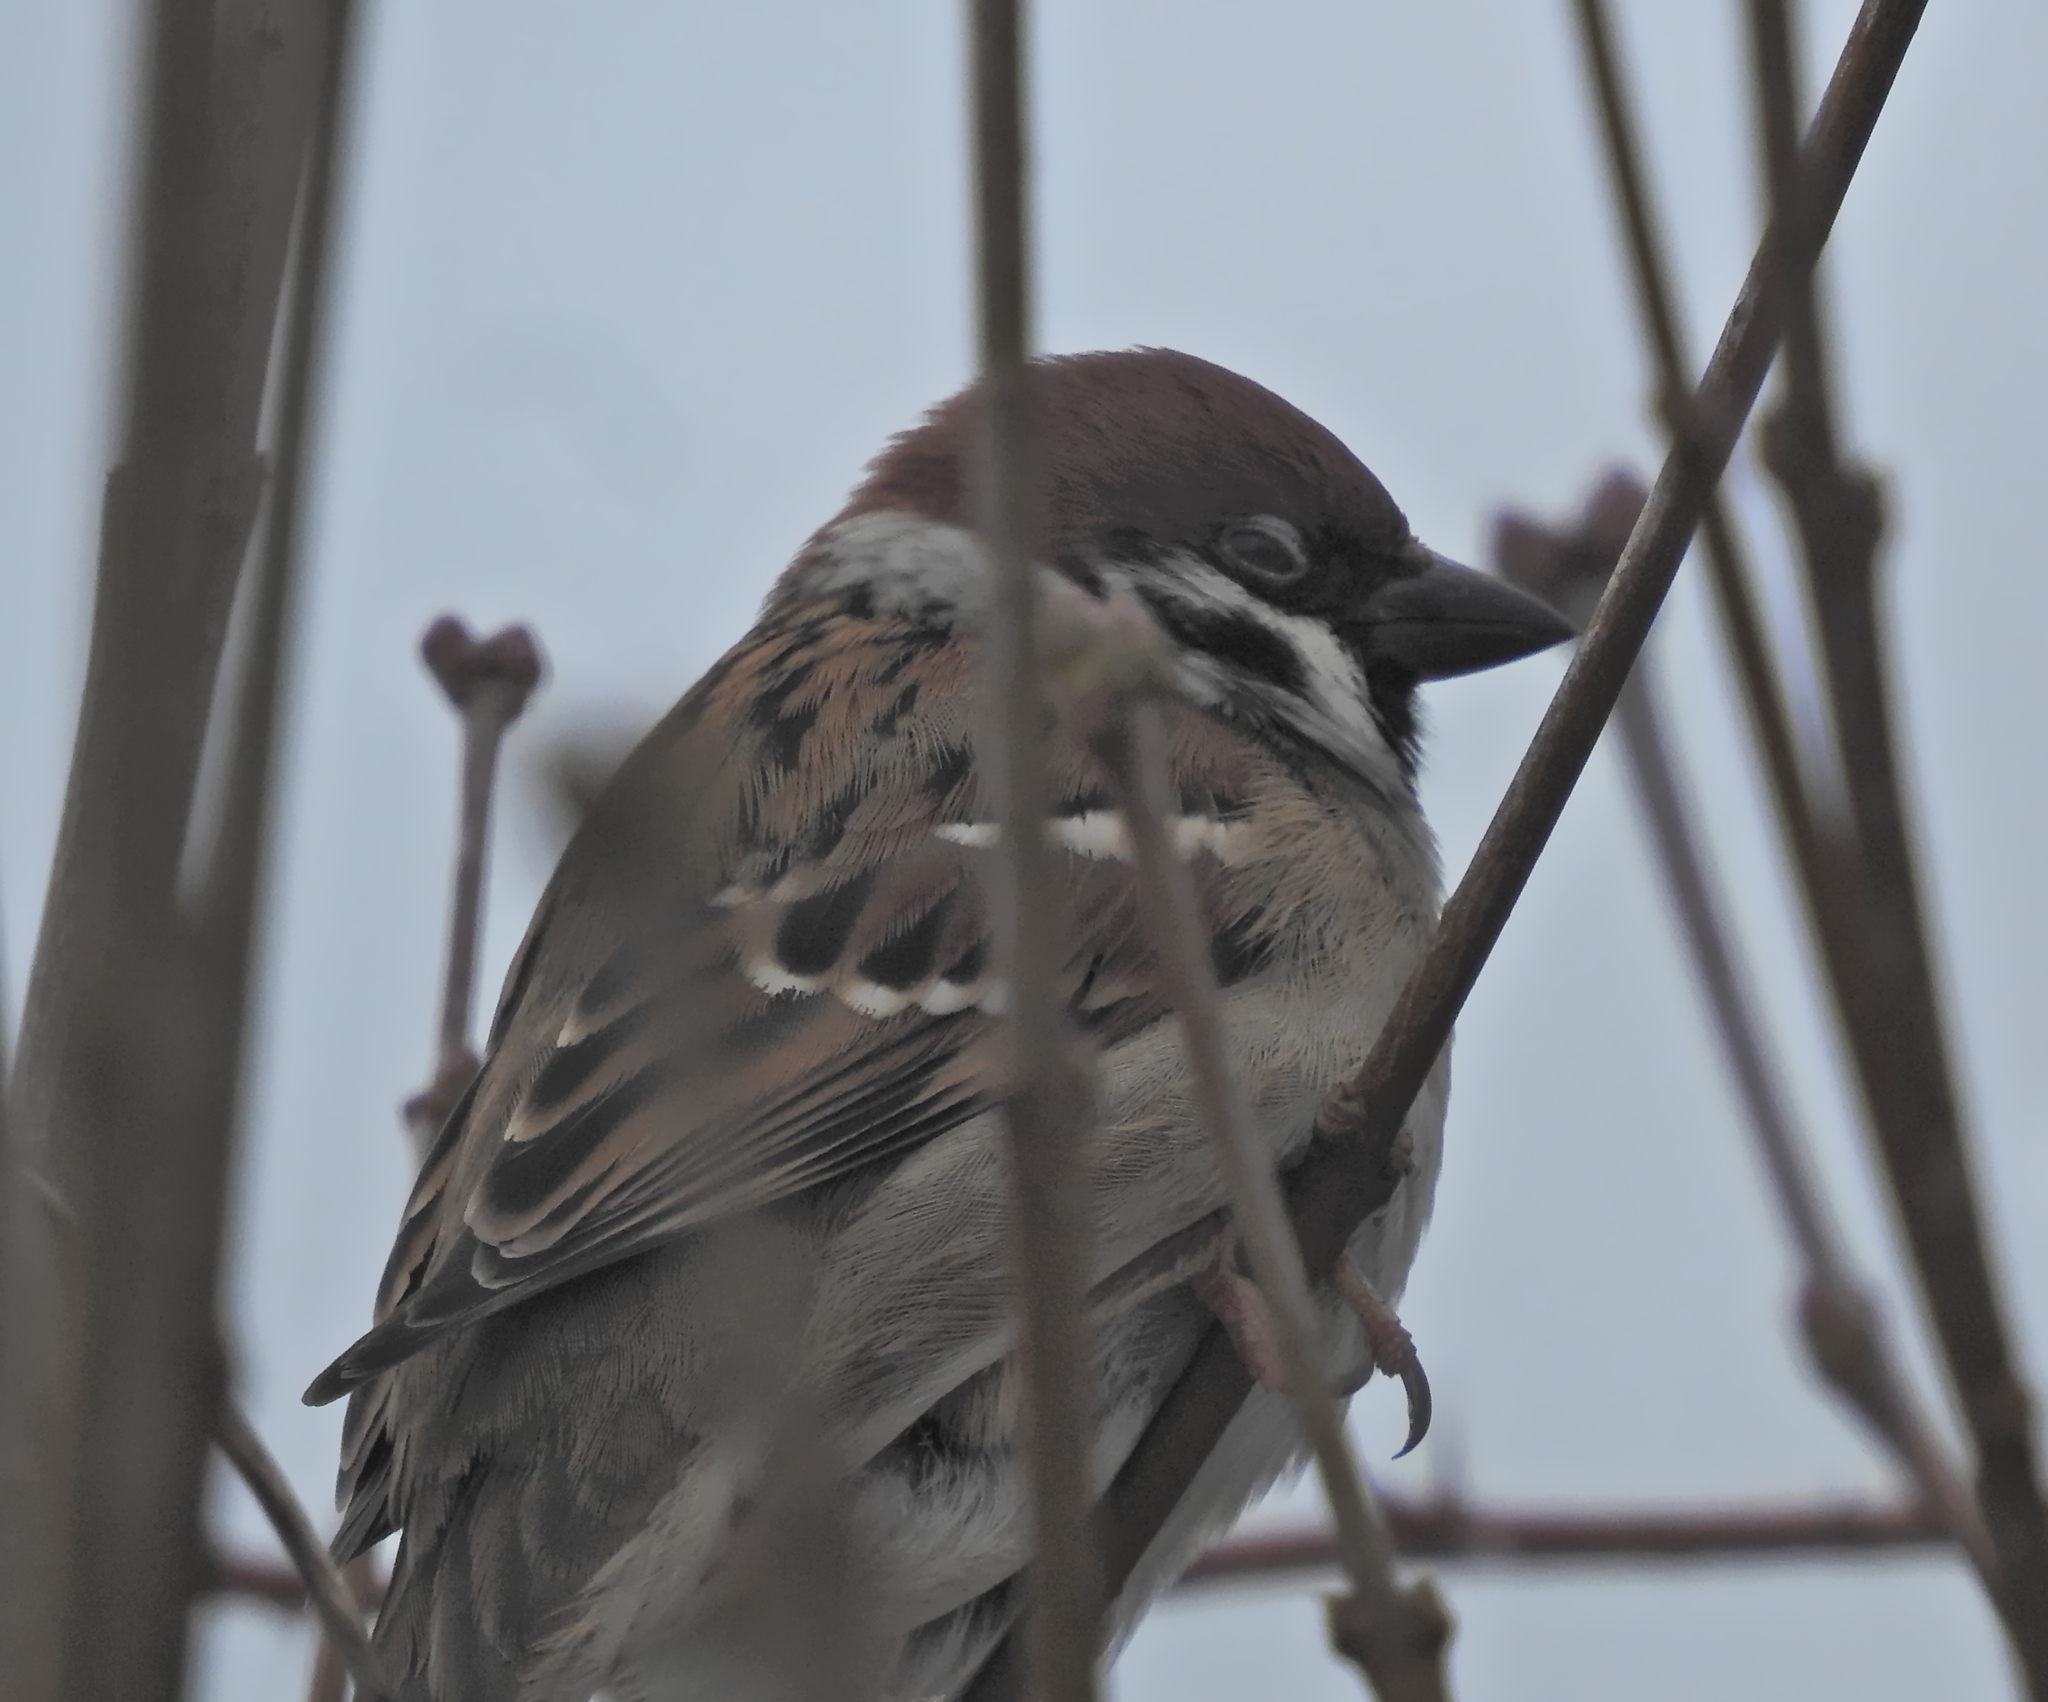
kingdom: Animalia
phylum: Chordata
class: Aves
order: Passeriformes
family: Passeridae
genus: Passer
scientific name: Passer montanus
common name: Eurasian tree sparrow
